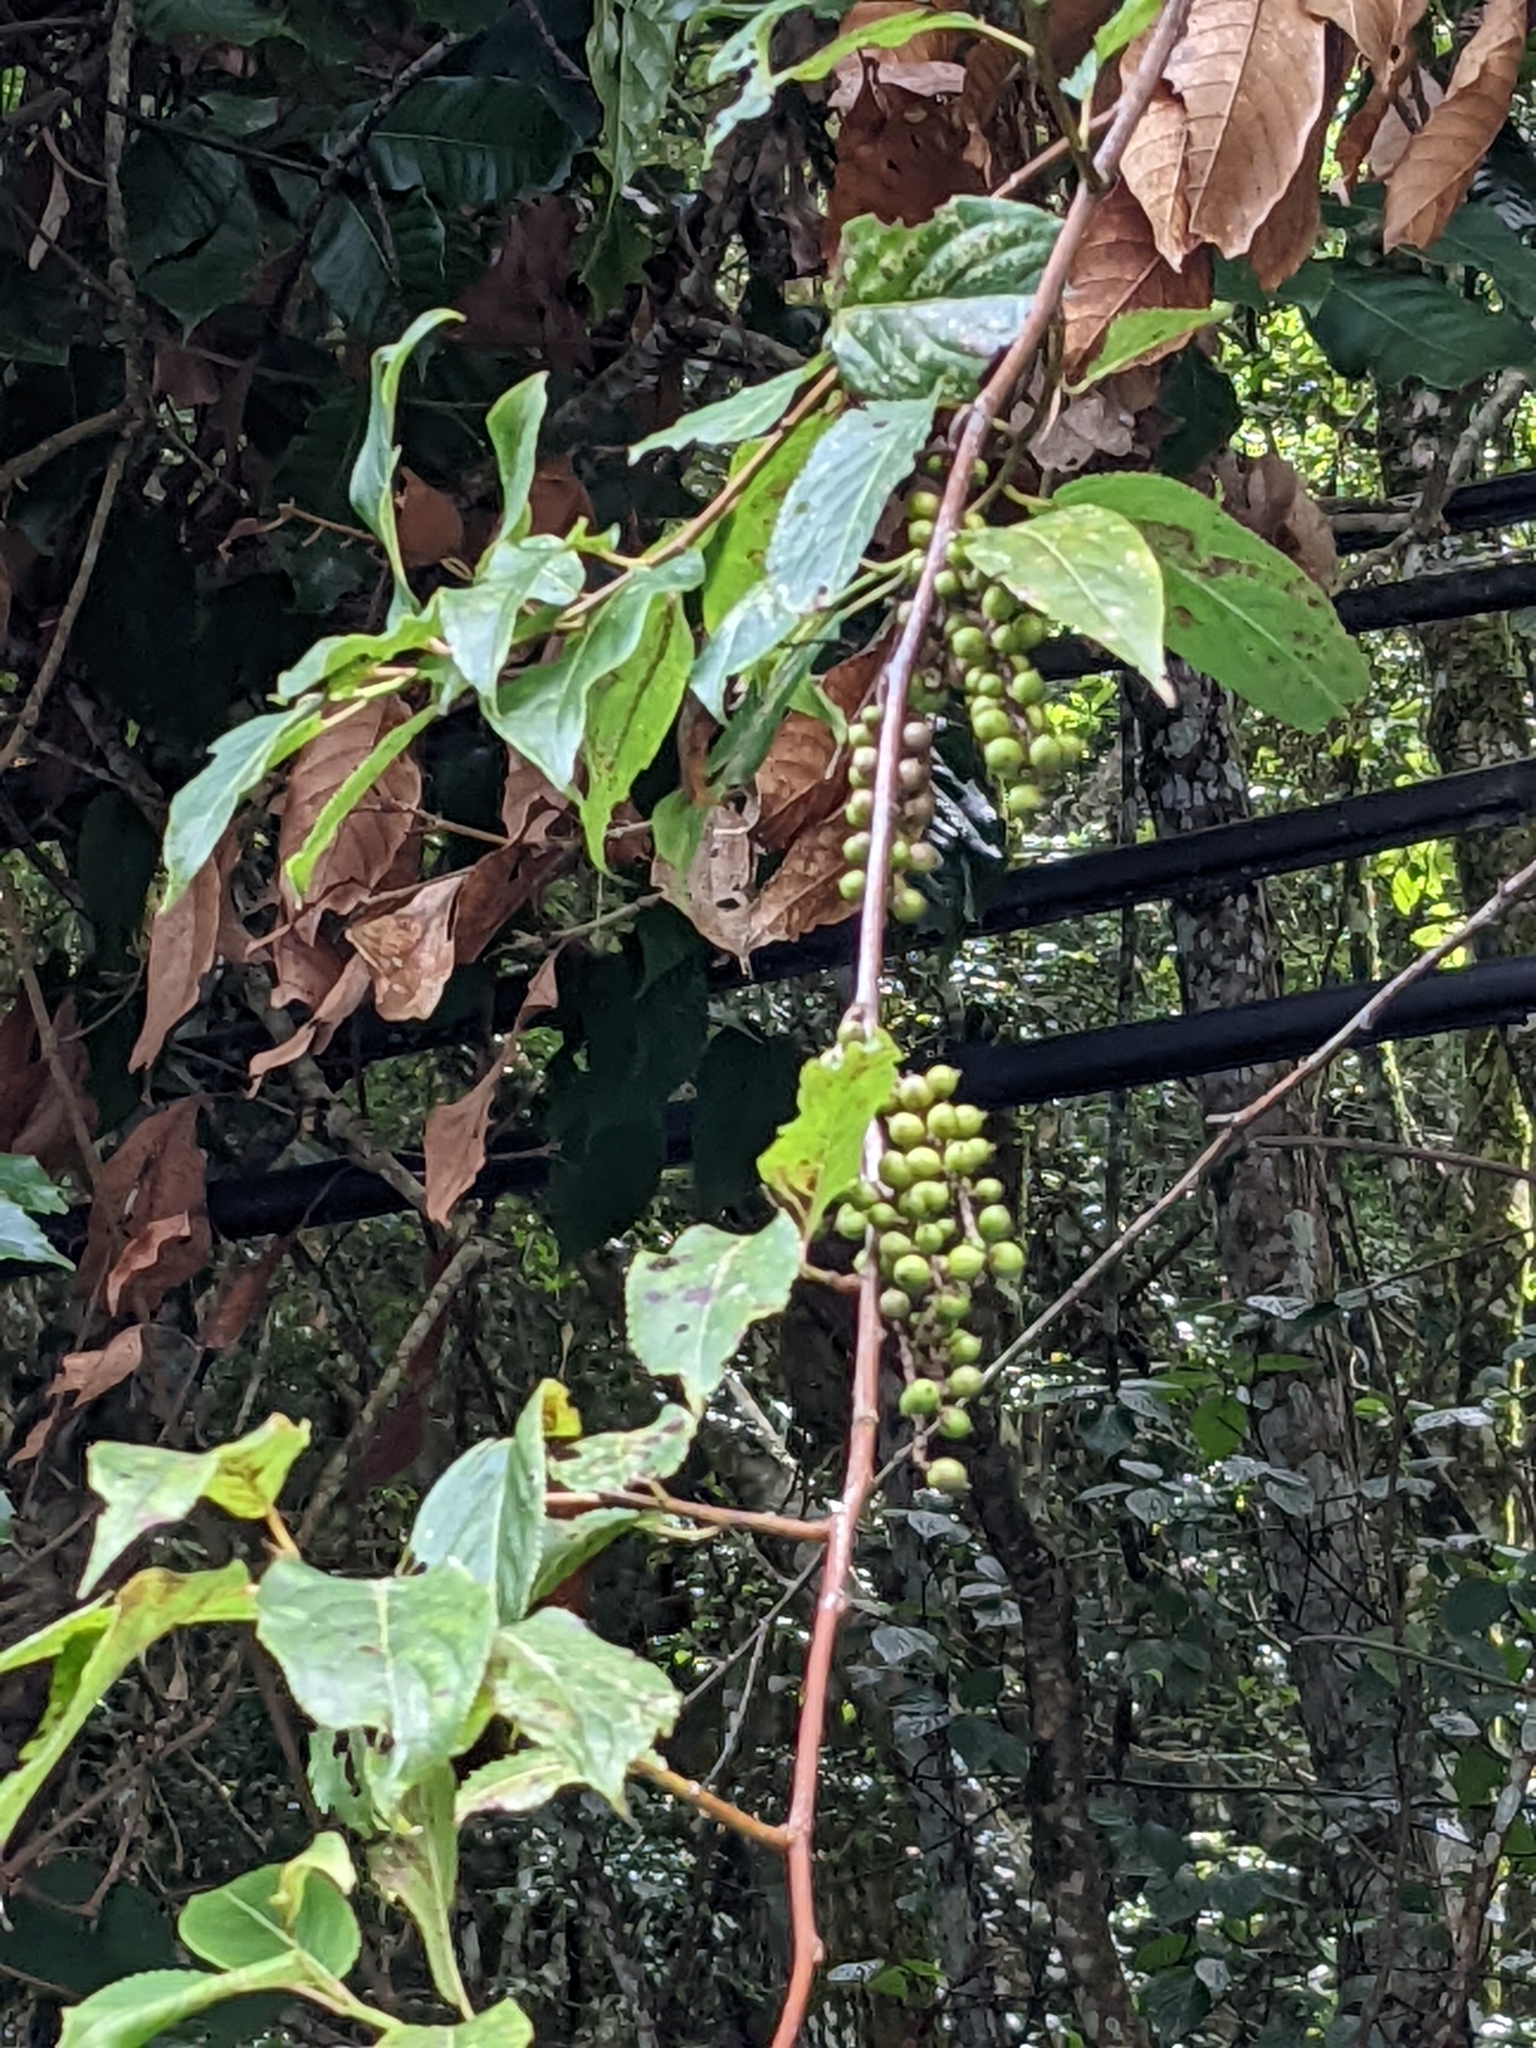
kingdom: Plantae
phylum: Tracheophyta
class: Magnoliopsida
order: Crossosomatales
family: Stachyuraceae
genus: Stachyurus
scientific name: Stachyurus himalaicus
